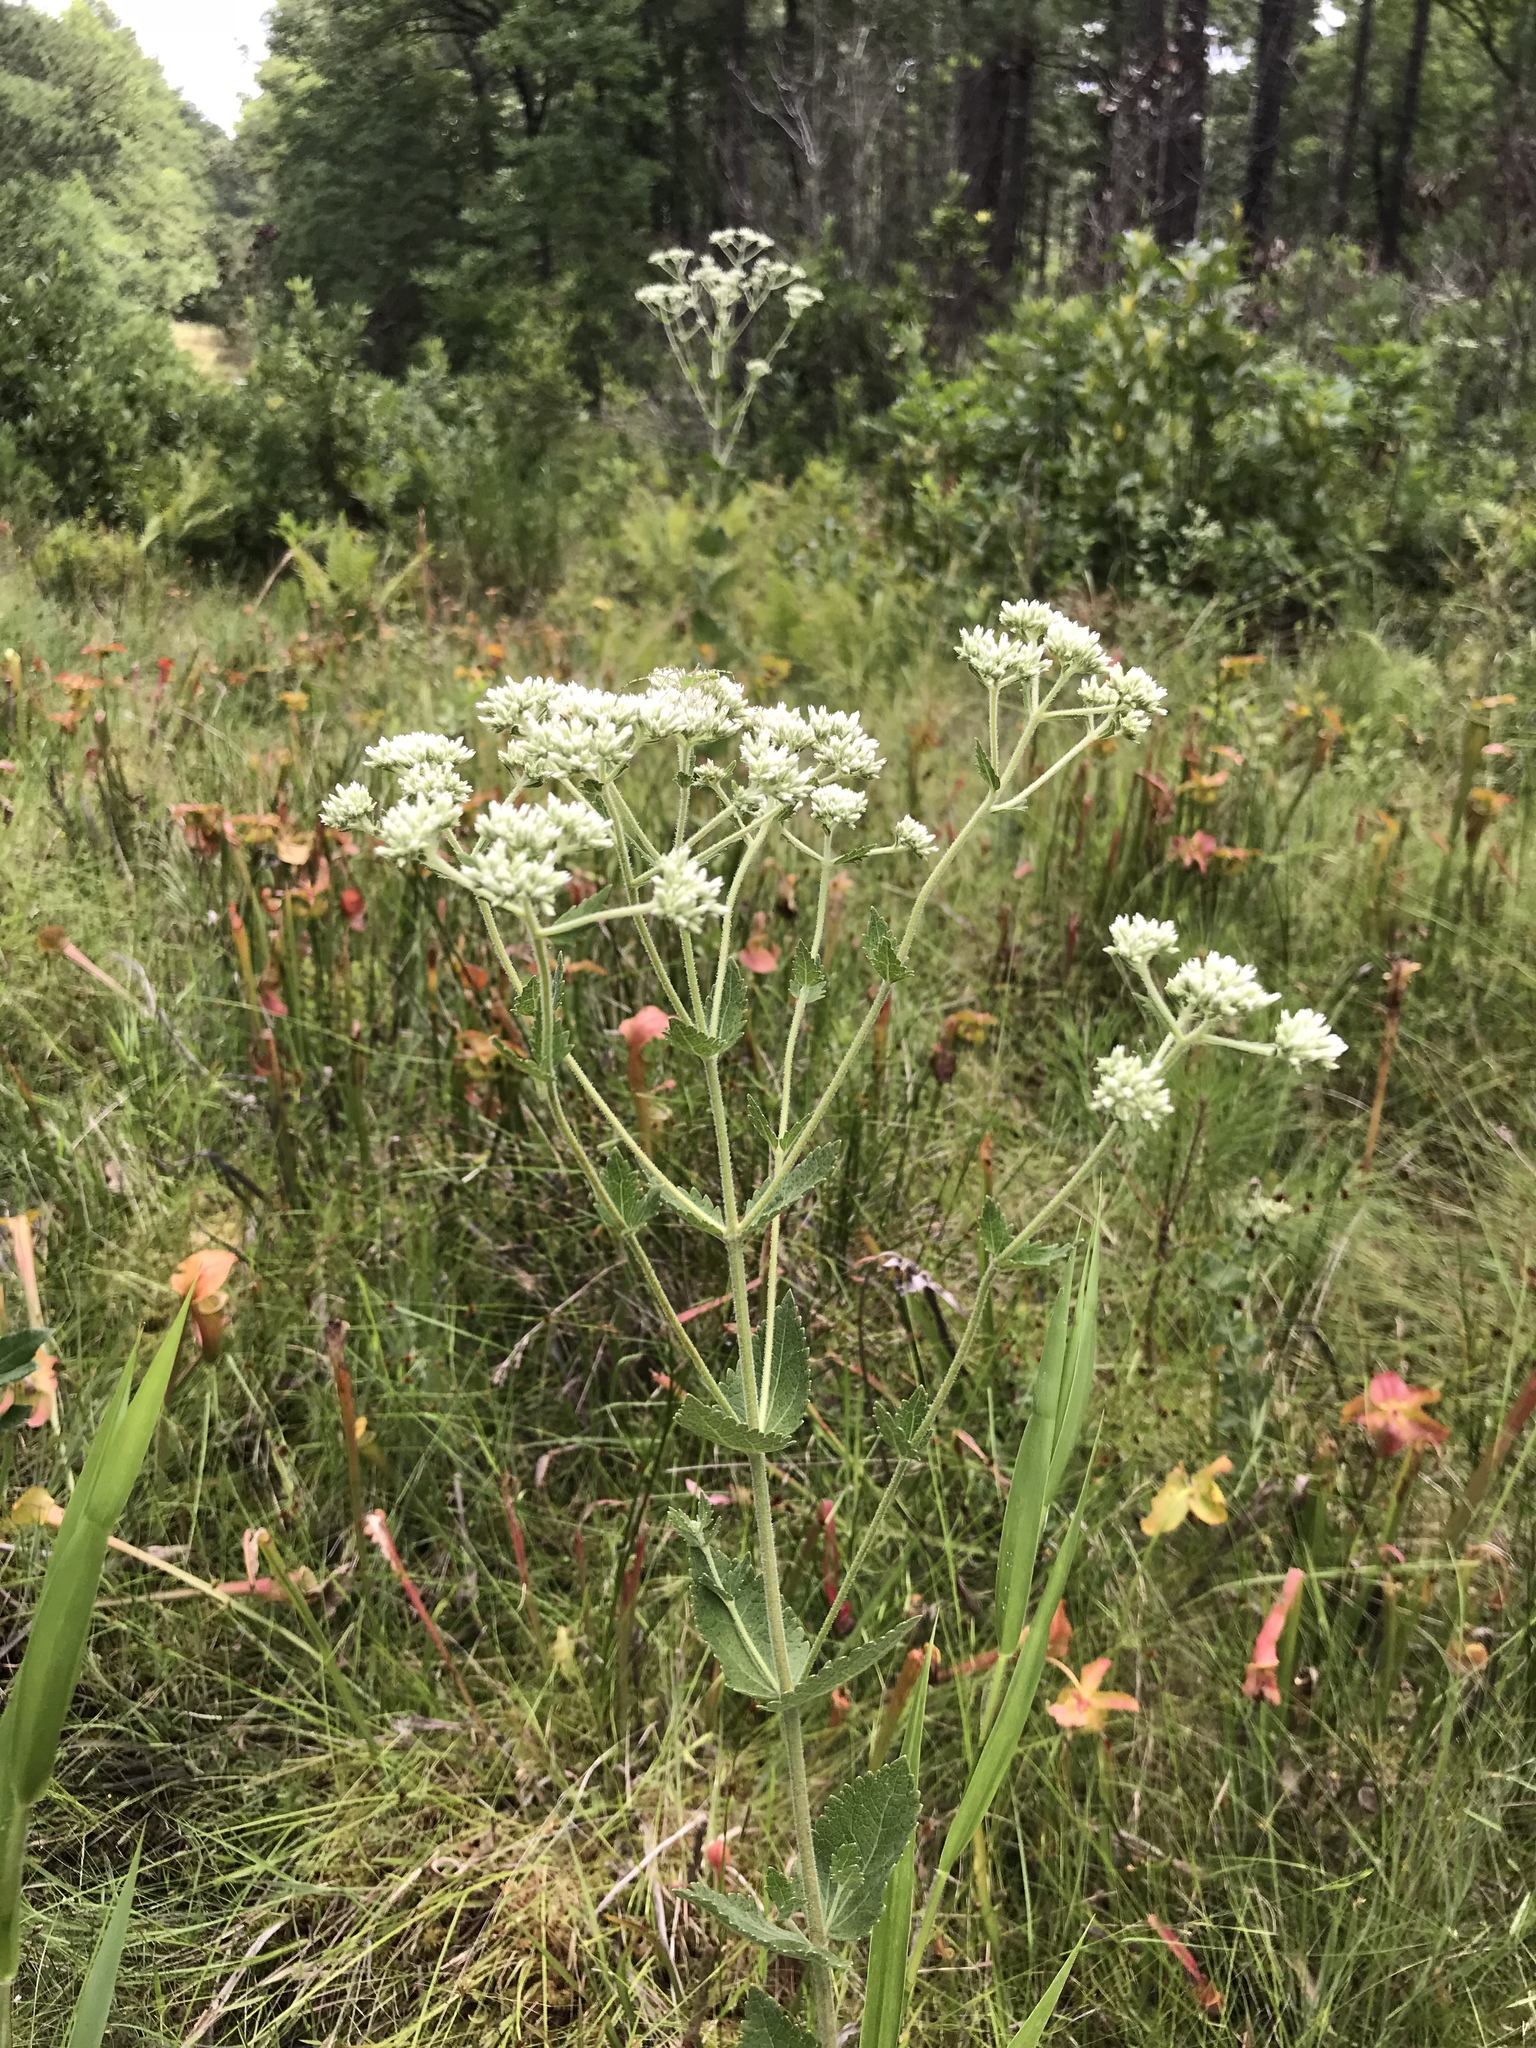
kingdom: Plantae
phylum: Tracheophyta
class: Magnoliopsida
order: Asterales
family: Asteraceae
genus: Eupatorium
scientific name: Eupatorium rotundifolium
